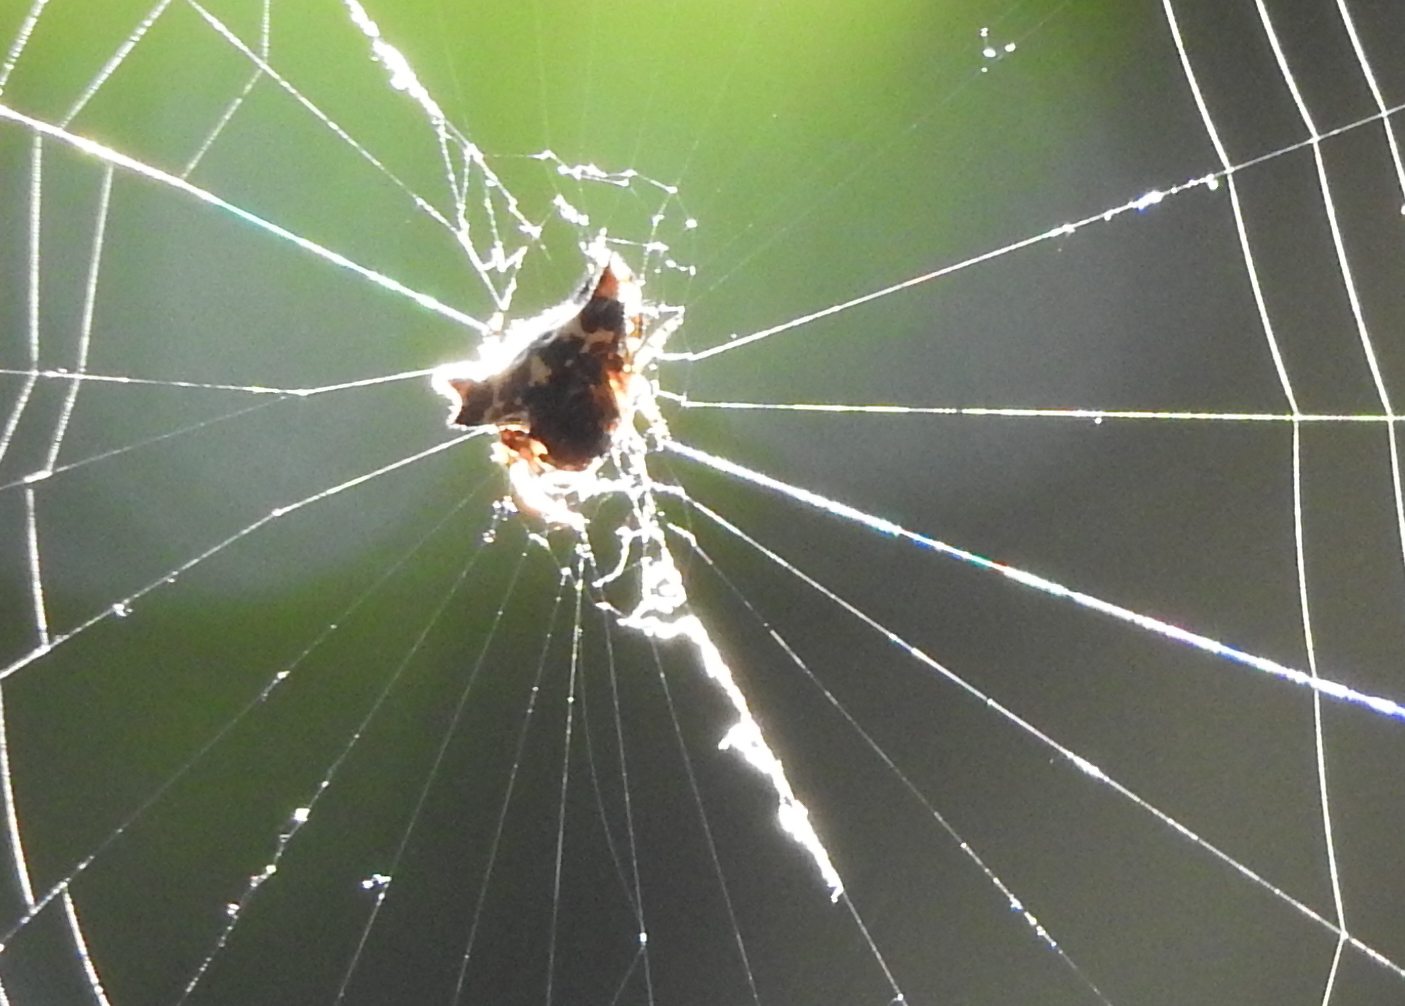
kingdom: Animalia
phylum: Arthropoda
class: Arachnida
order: Araneae
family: Araneidae
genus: Gasteracantha
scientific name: Gasteracantha kuhli
